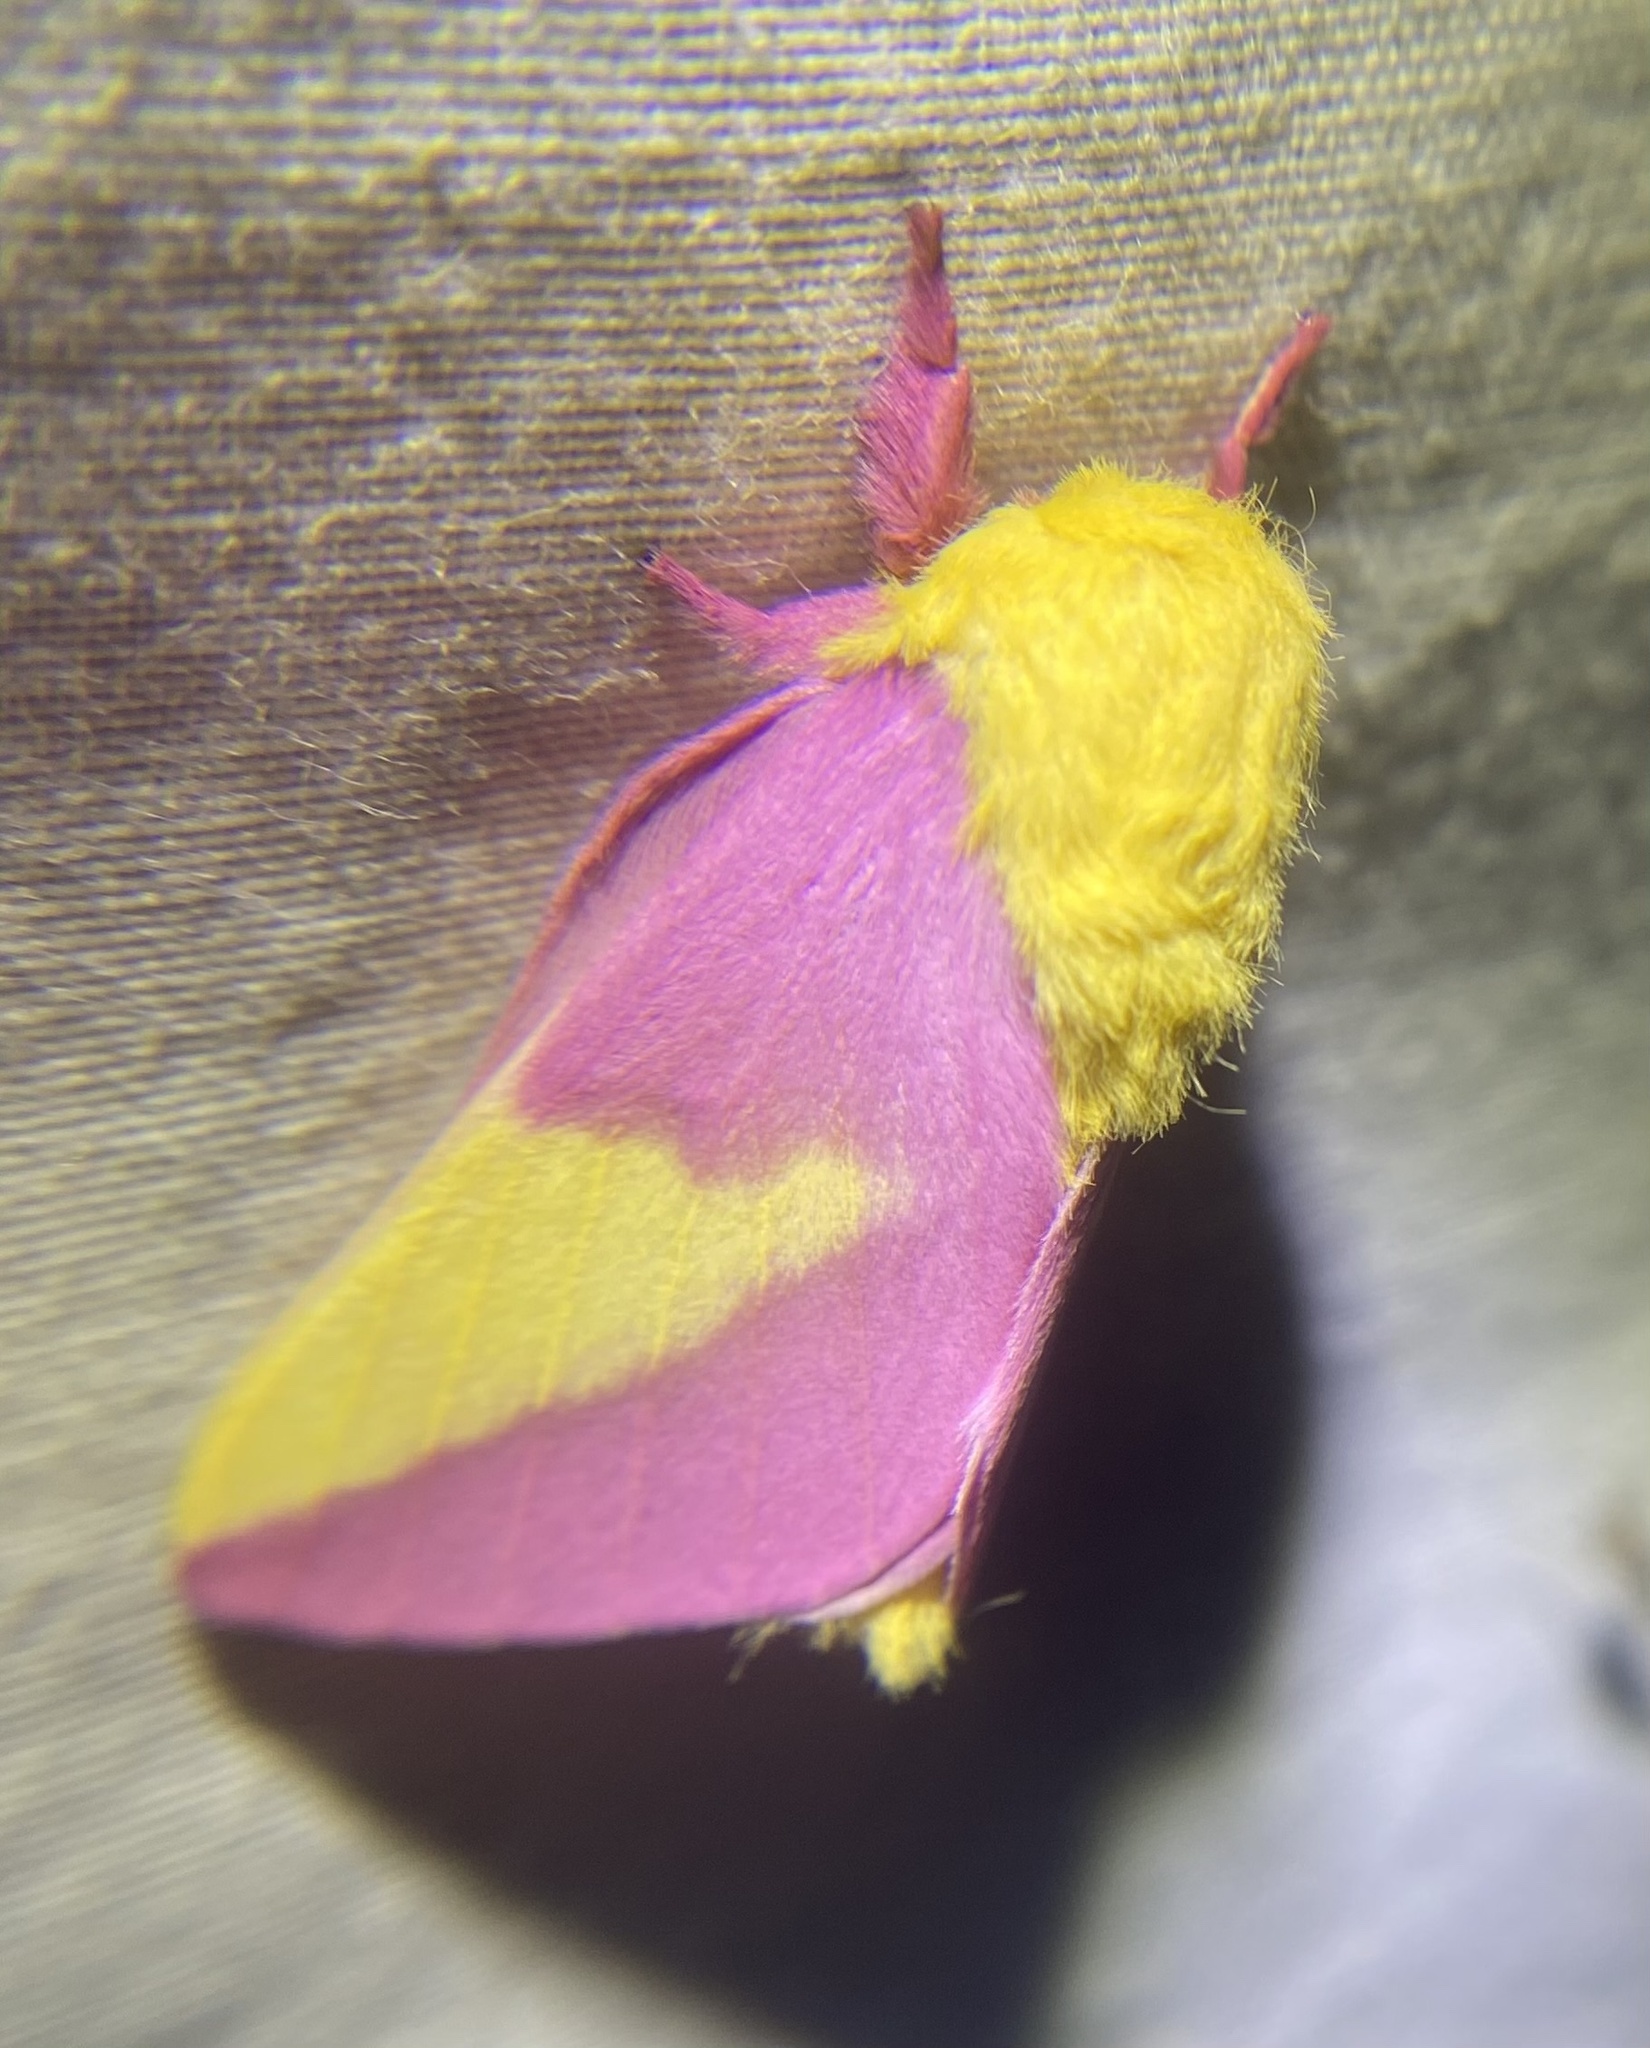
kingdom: Animalia
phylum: Arthropoda
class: Insecta
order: Lepidoptera
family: Saturniidae
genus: Dryocampa
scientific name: Dryocampa rubicunda
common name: Rosy maple moth
